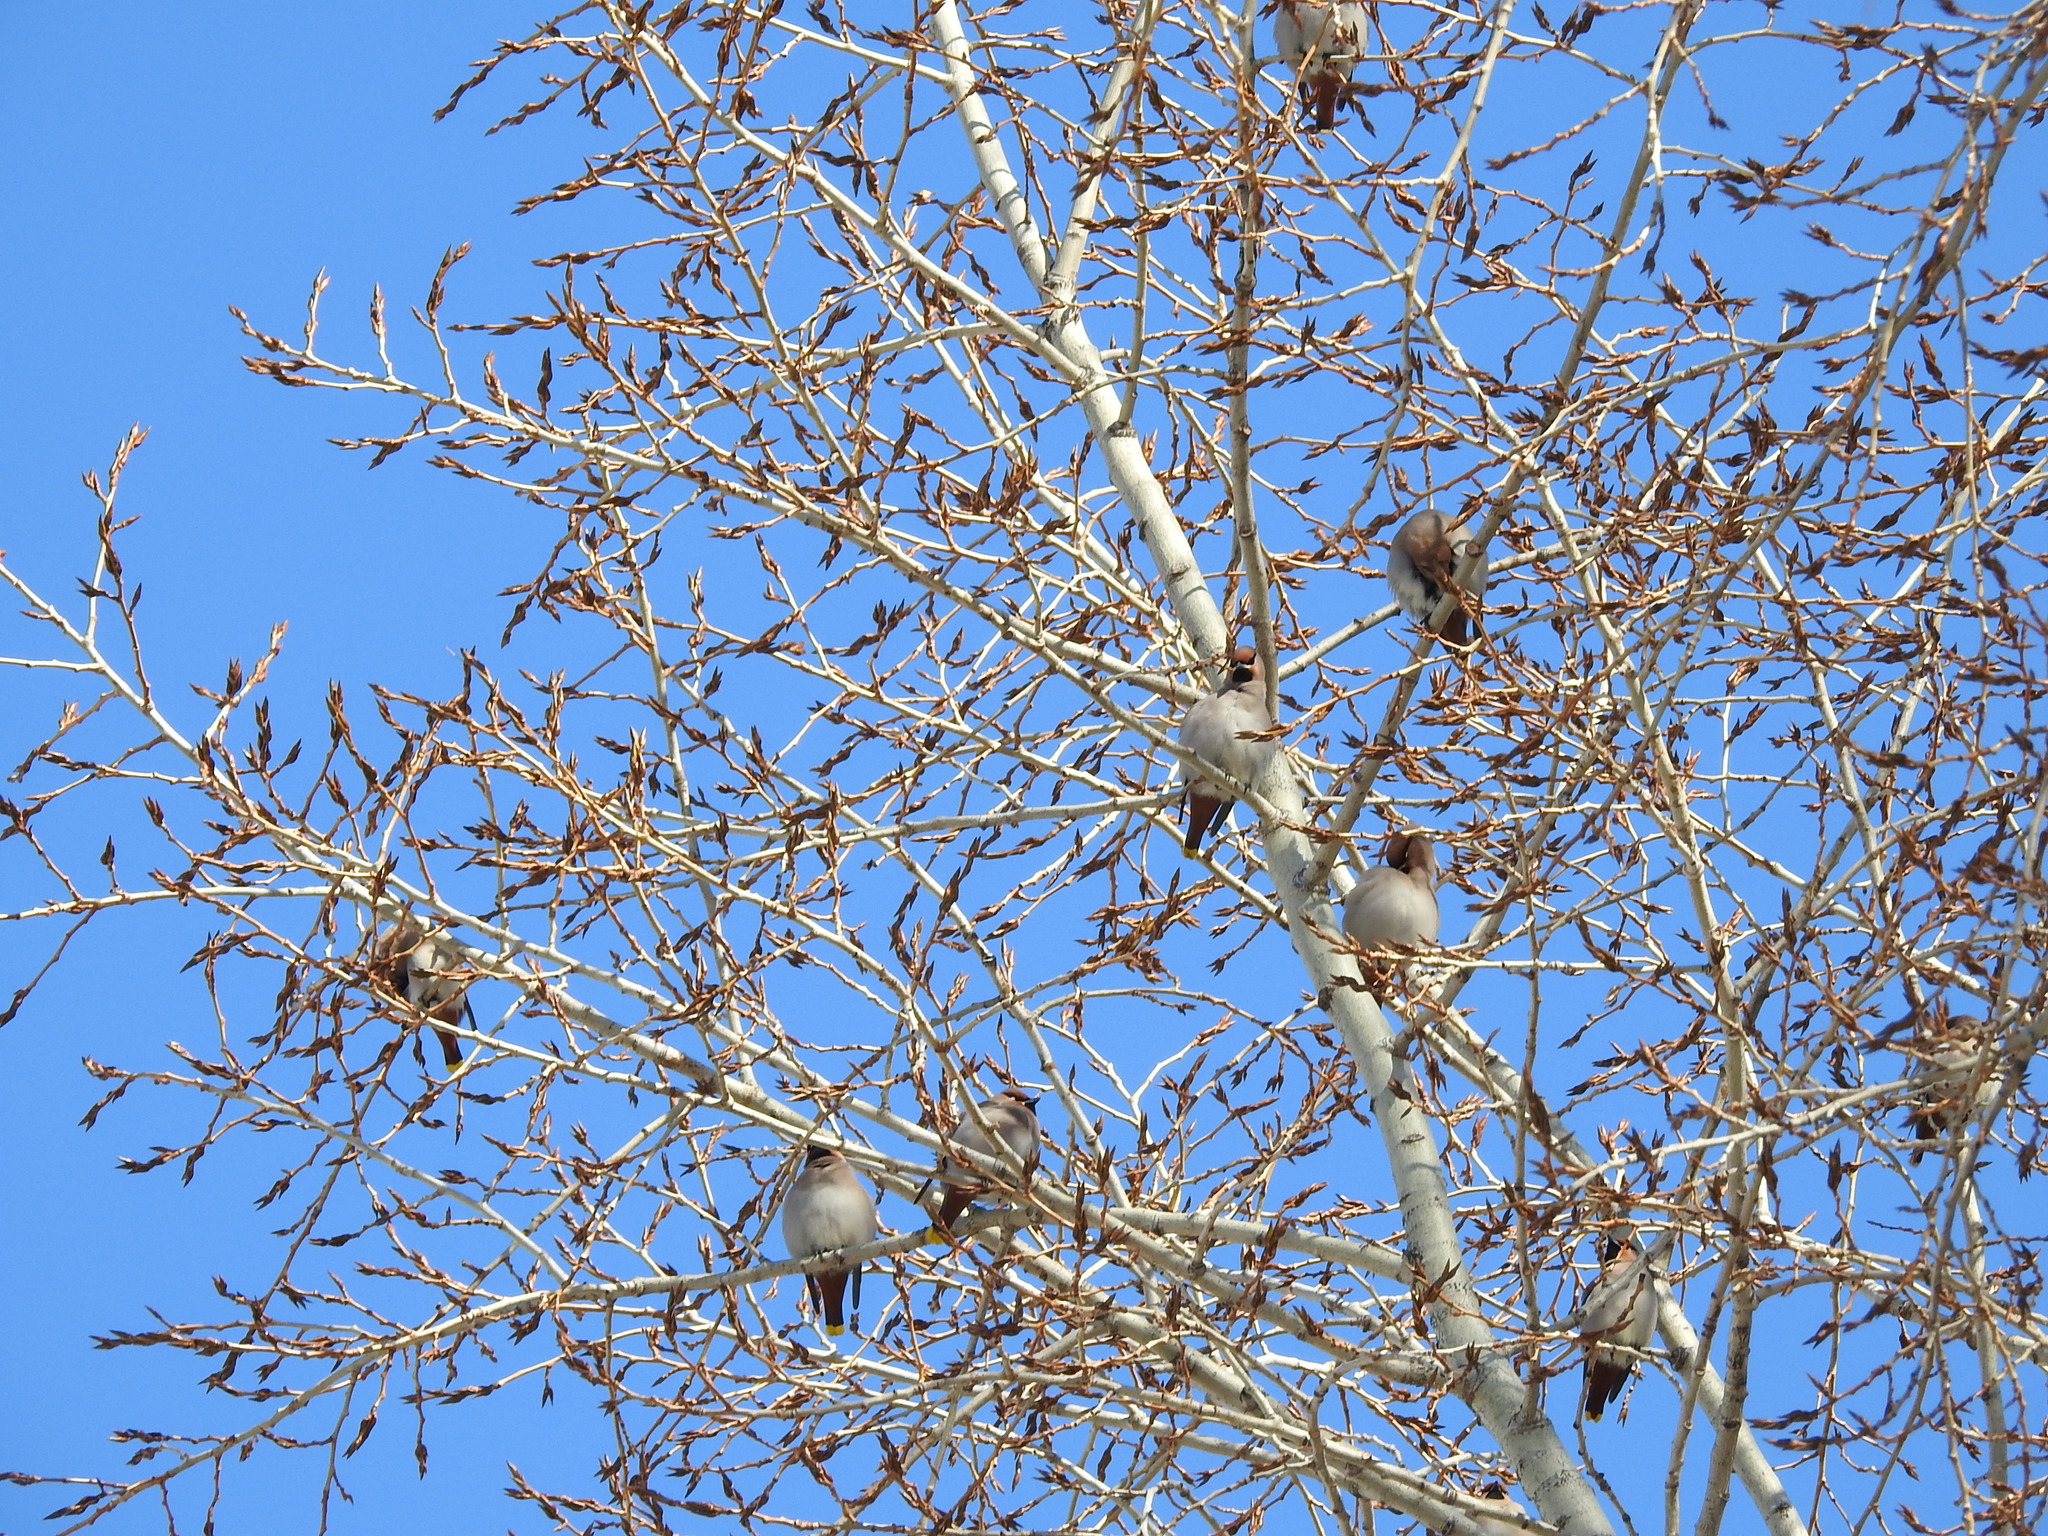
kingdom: Animalia
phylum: Chordata
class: Aves
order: Passeriformes
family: Bombycillidae
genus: Bombycilla
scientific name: Bombycilla garrulus
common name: Bohemian waxwing
